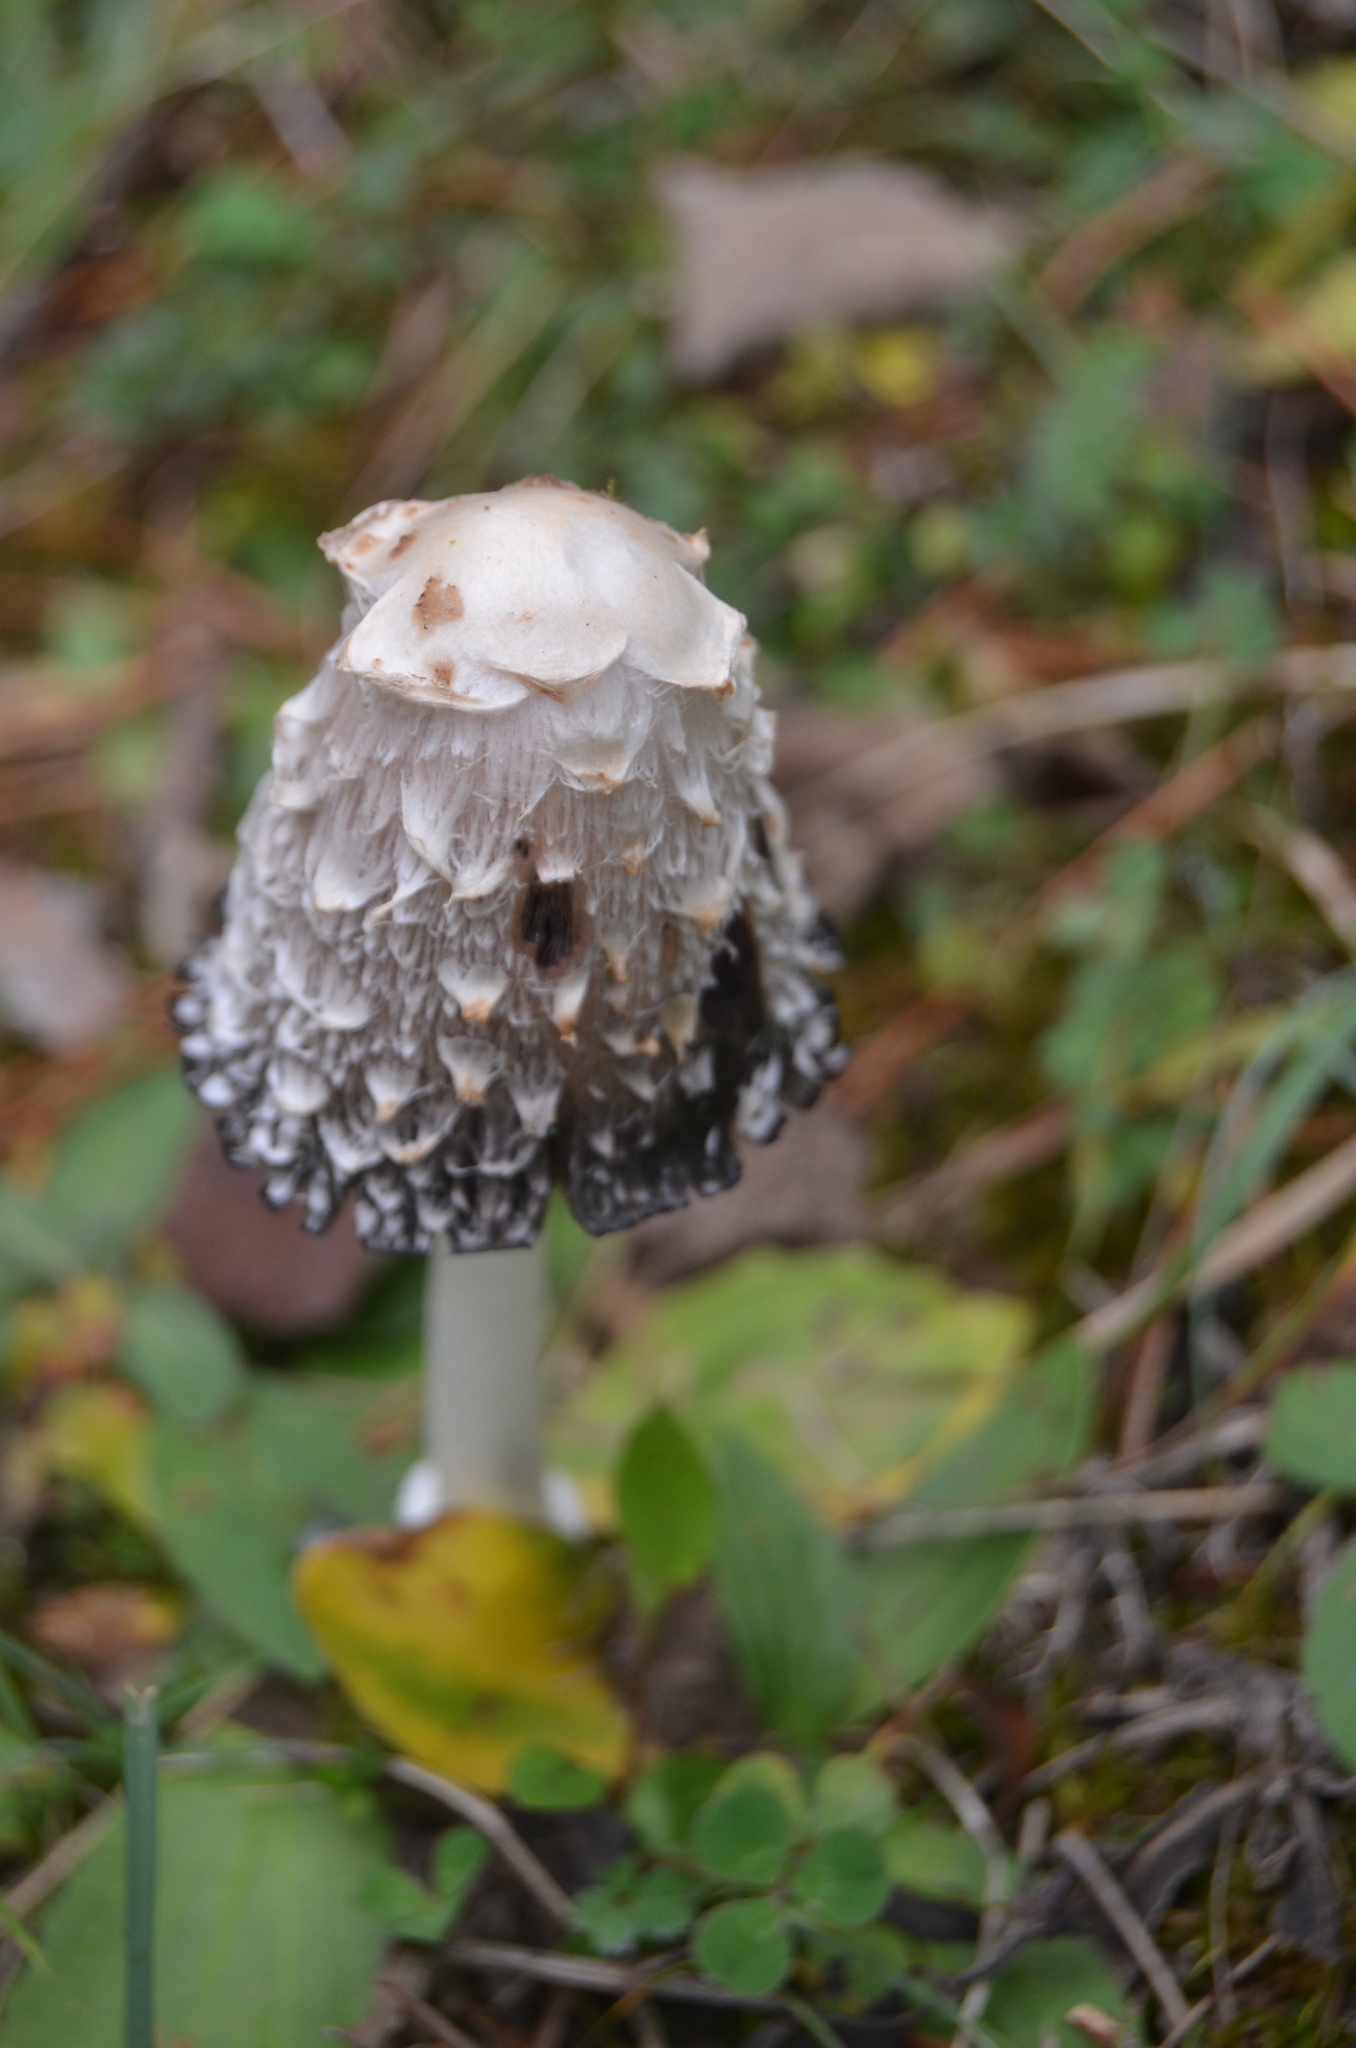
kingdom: Fungi
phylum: Basidiomycota
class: Agaricomycetes
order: Agaricales
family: Agaricaceae
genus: Coprinus
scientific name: Coprinus comatus
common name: Lawyer's wig
